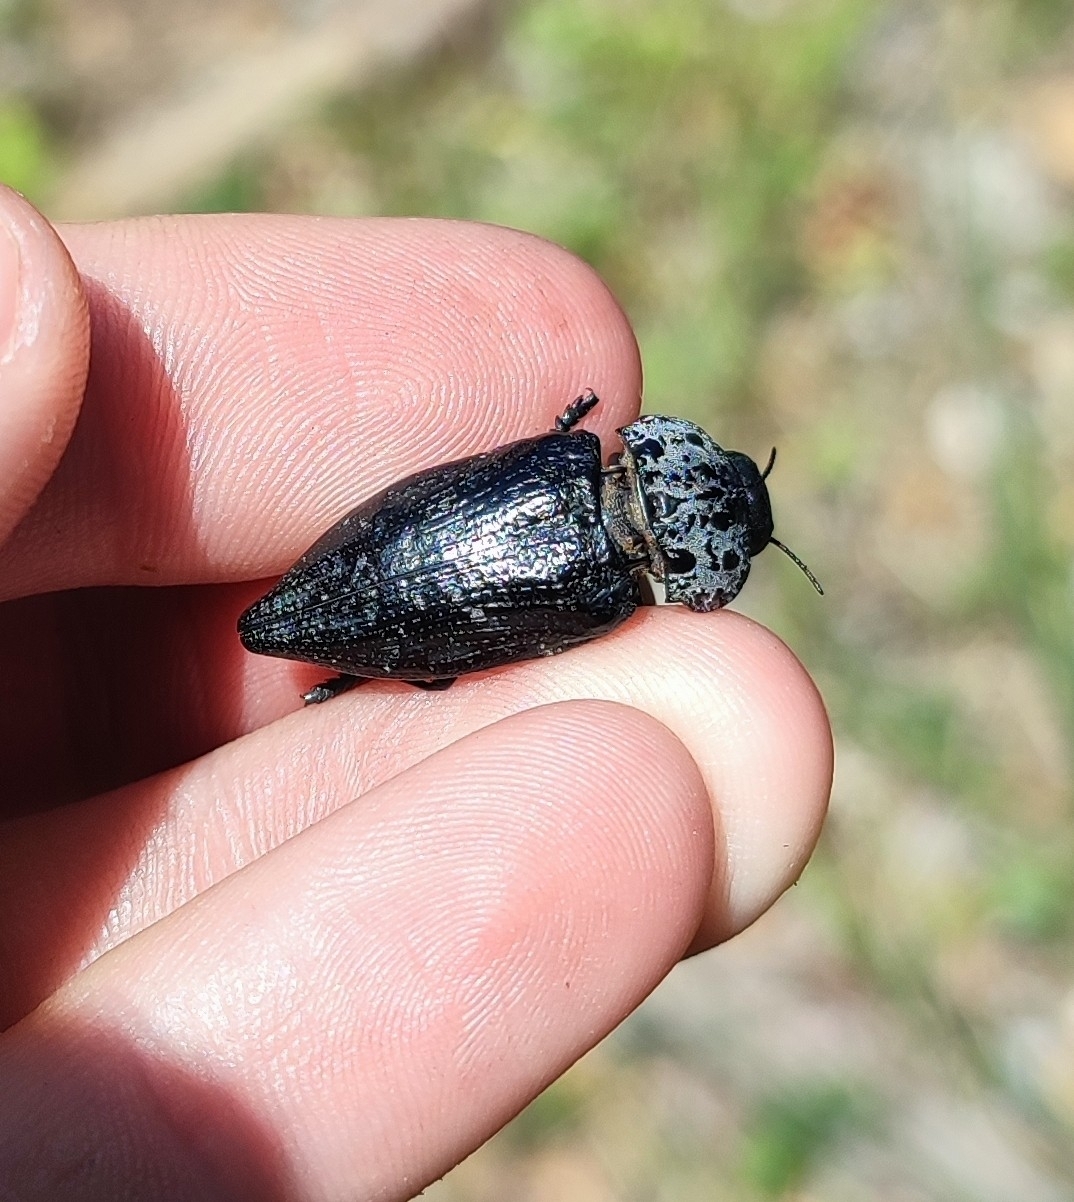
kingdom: Animalia
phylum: Arthropoda
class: Insecta
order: Coleoptera
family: Buprestidae
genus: Capnodis
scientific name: Capnodis tenebrionis
